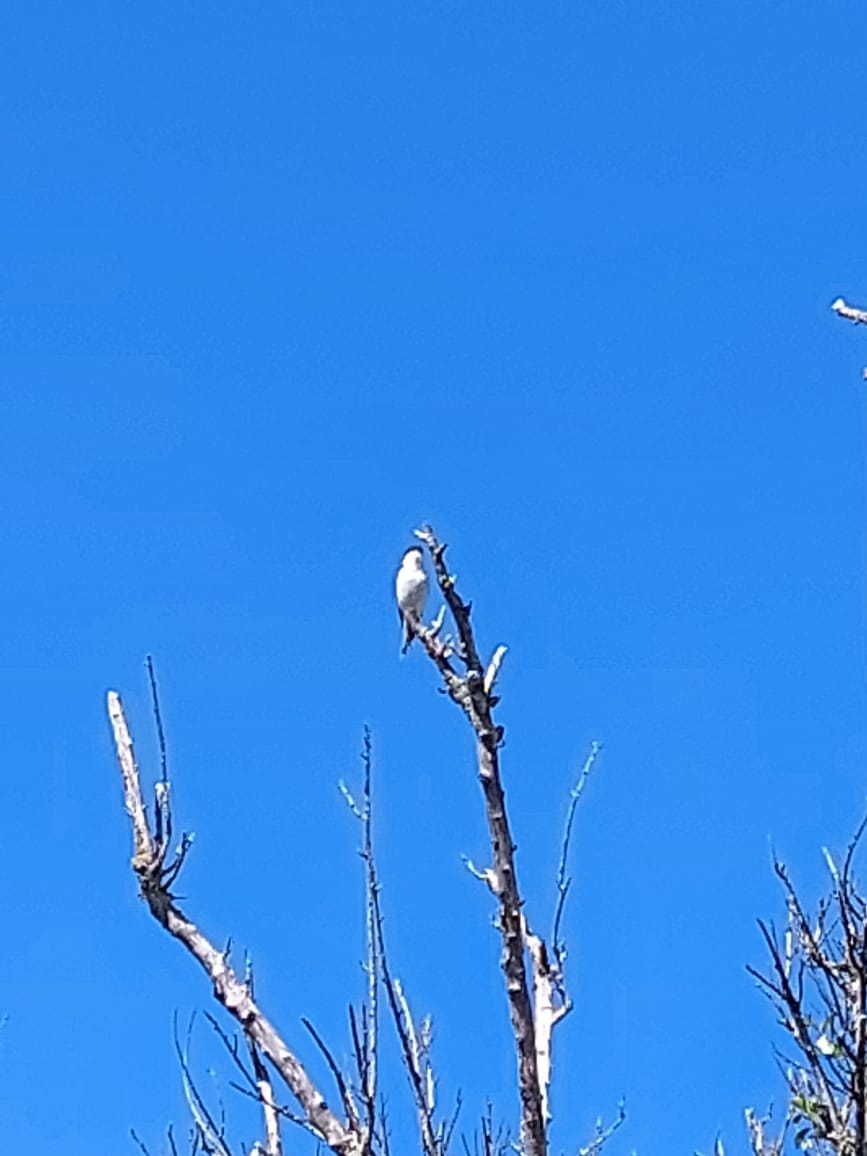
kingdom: Animalia
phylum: Chordata
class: Aves
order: Passeriformes
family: Laniidae
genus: Lanius
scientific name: Lanius collaris
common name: Southern fiscal
